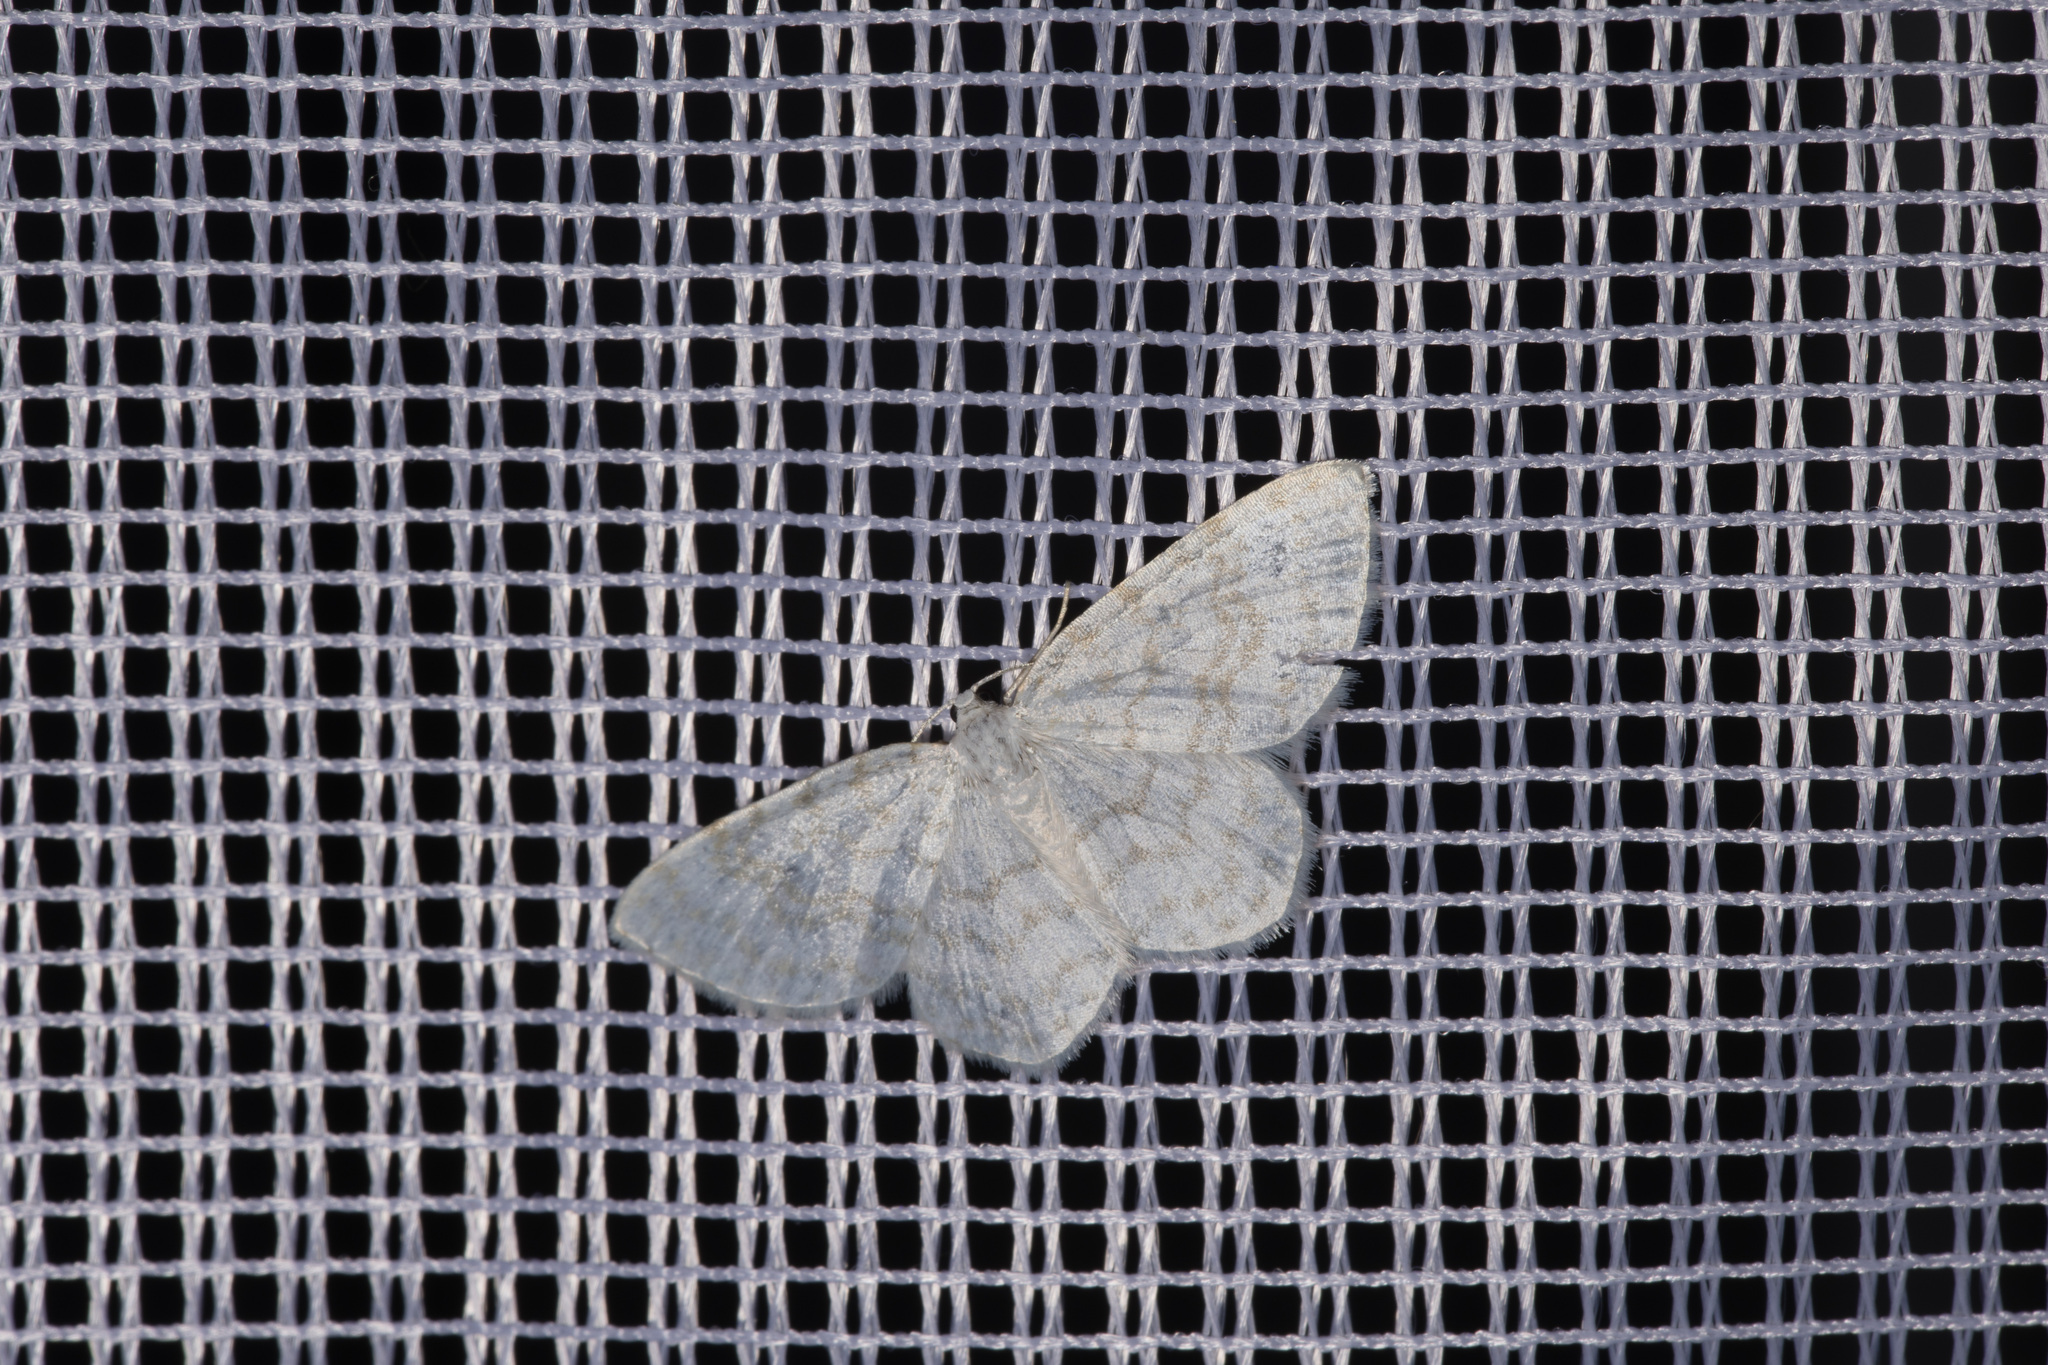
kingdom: Animalia
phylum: Arthropoda
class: Insecta
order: Lepidoptera
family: Geometridae
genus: Asthena
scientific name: Asthena albulata
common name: Small white wave
